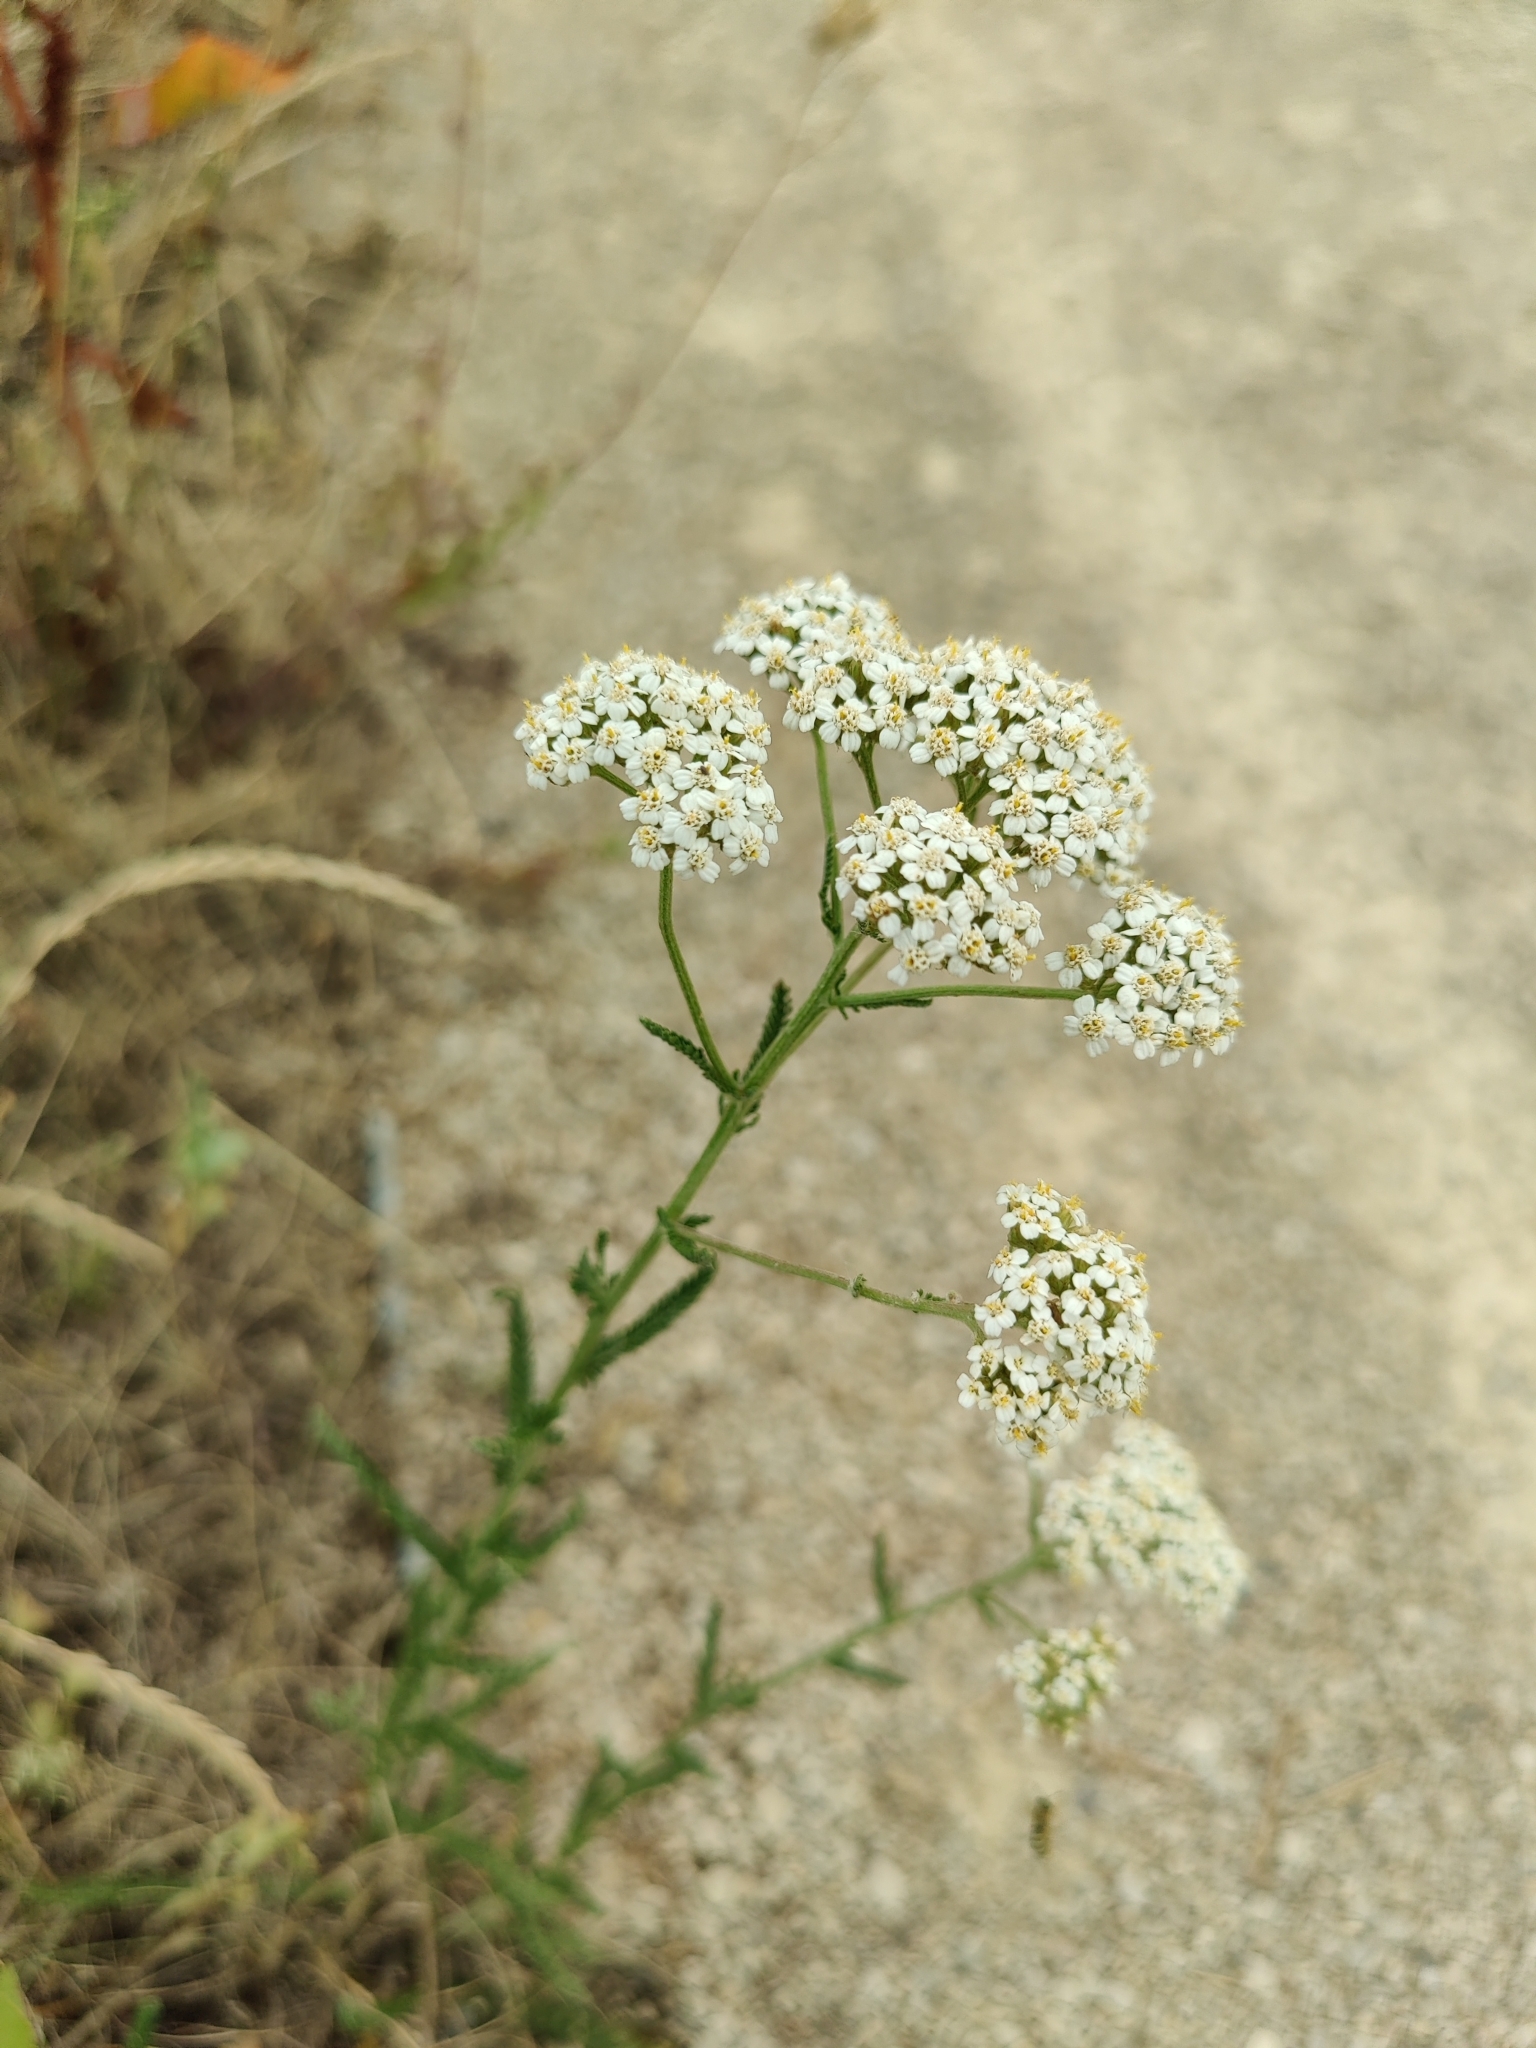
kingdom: Plantae
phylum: Tracheophyta
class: Magnoliopsida
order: Asterales
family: Asteraceae
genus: Achillea
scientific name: Achillea millefolium
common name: Yarrow
